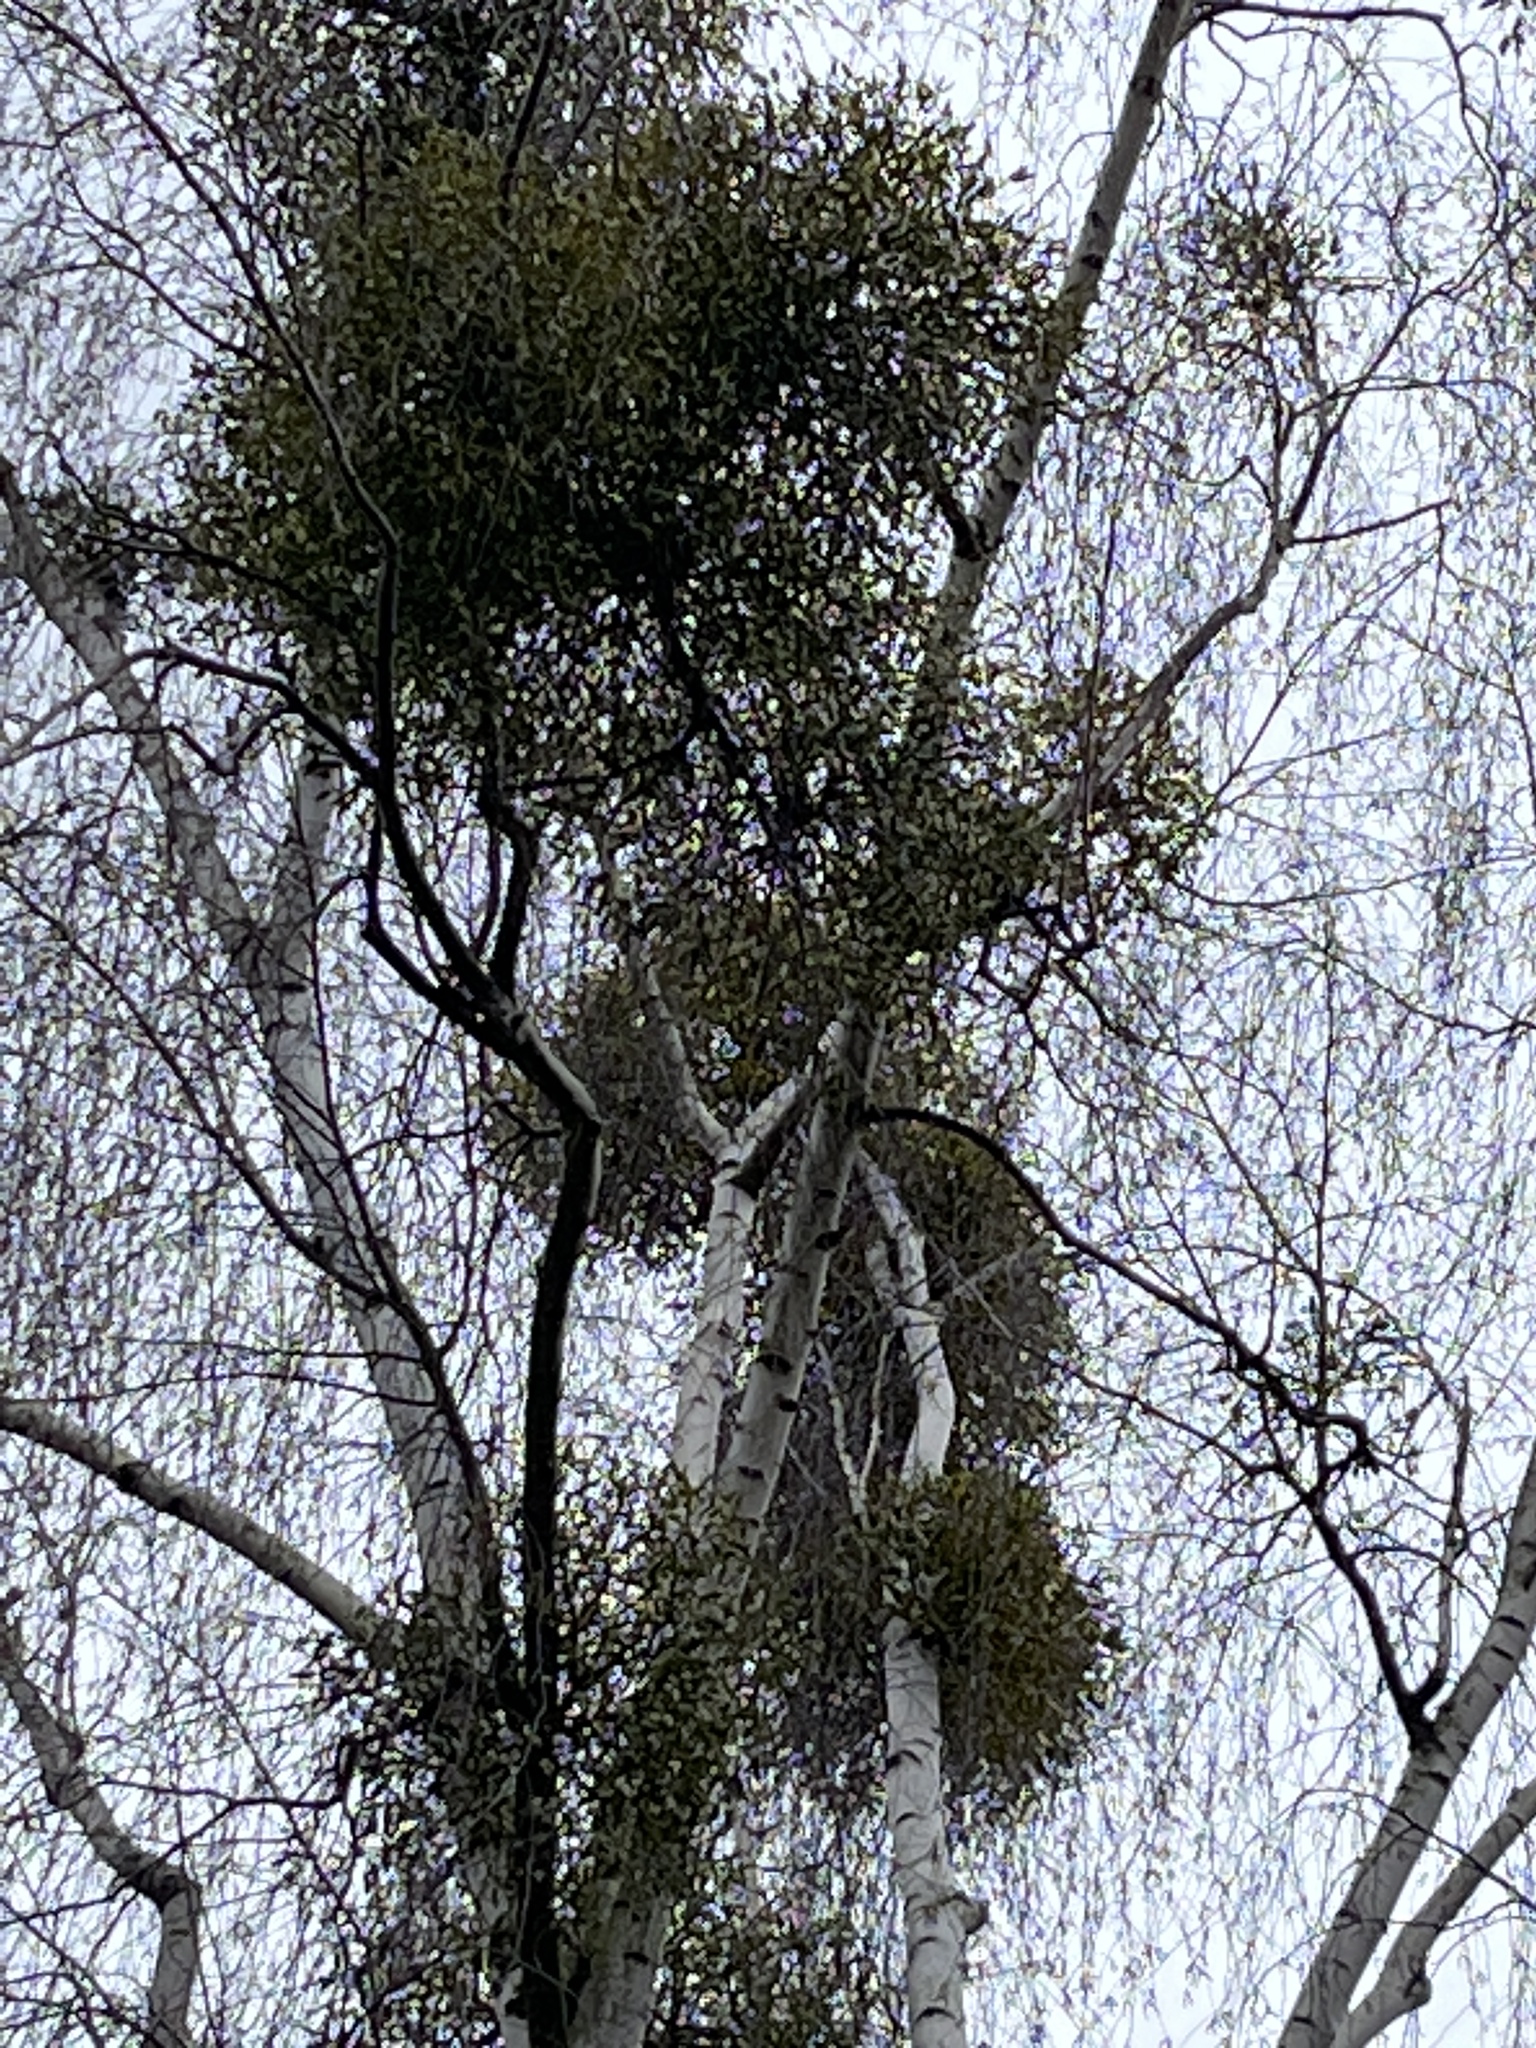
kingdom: Plantae
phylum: Tracheophyta
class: Magnoliopsida
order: Santalales
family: Viscaceae
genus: Viscum
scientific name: Viscum album
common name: Mistletoe
